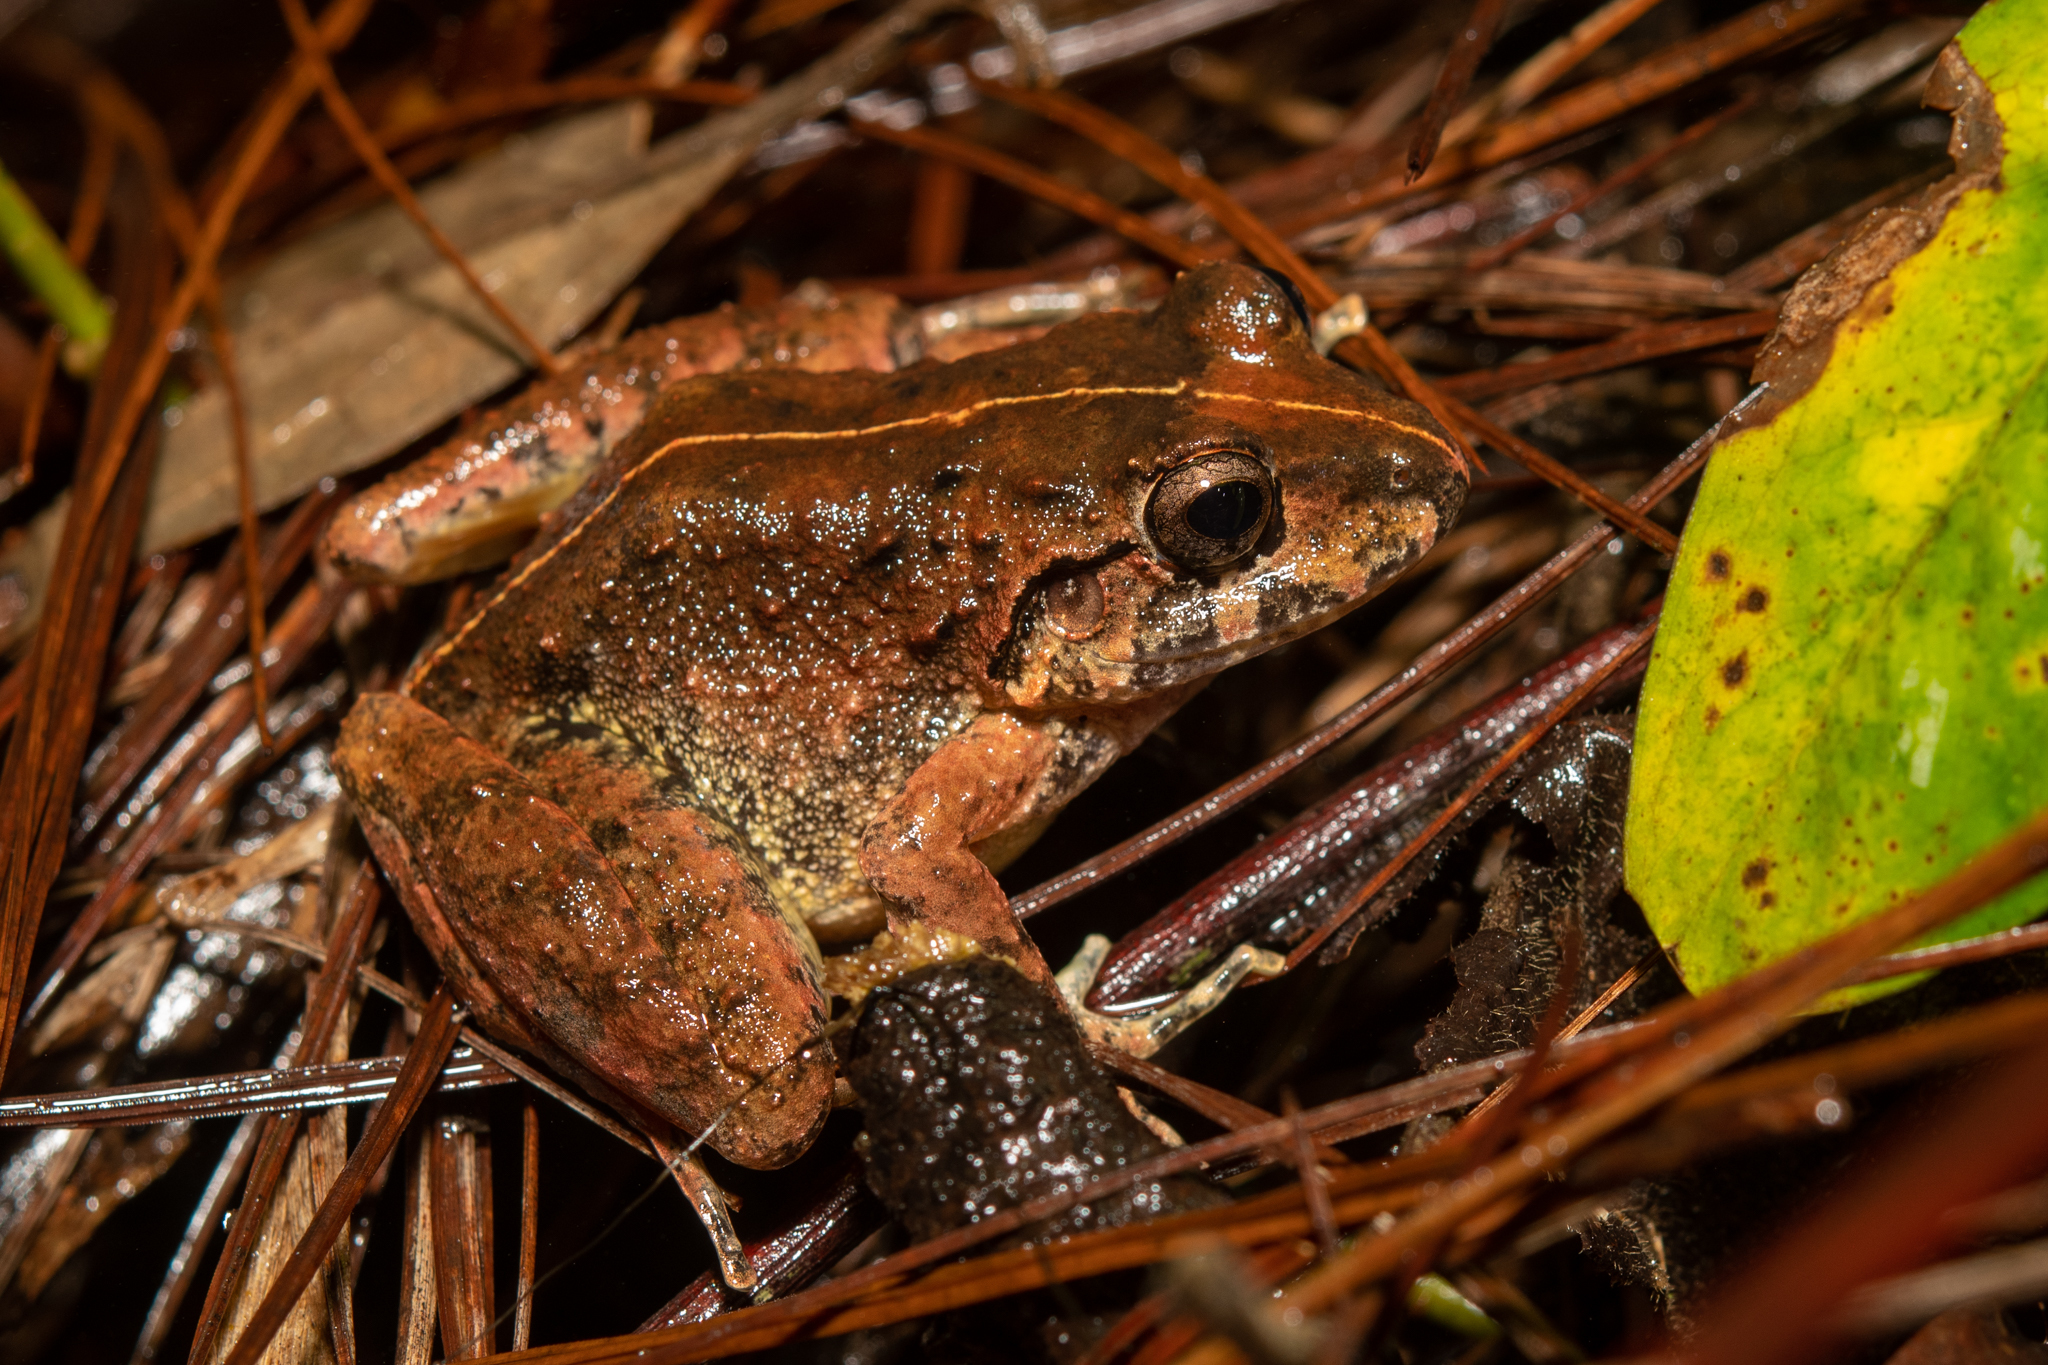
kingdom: Animalia
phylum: Chordata
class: Amphibia
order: Anura
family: Craugastoridae
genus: Craugastor
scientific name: Craugastor emleni
